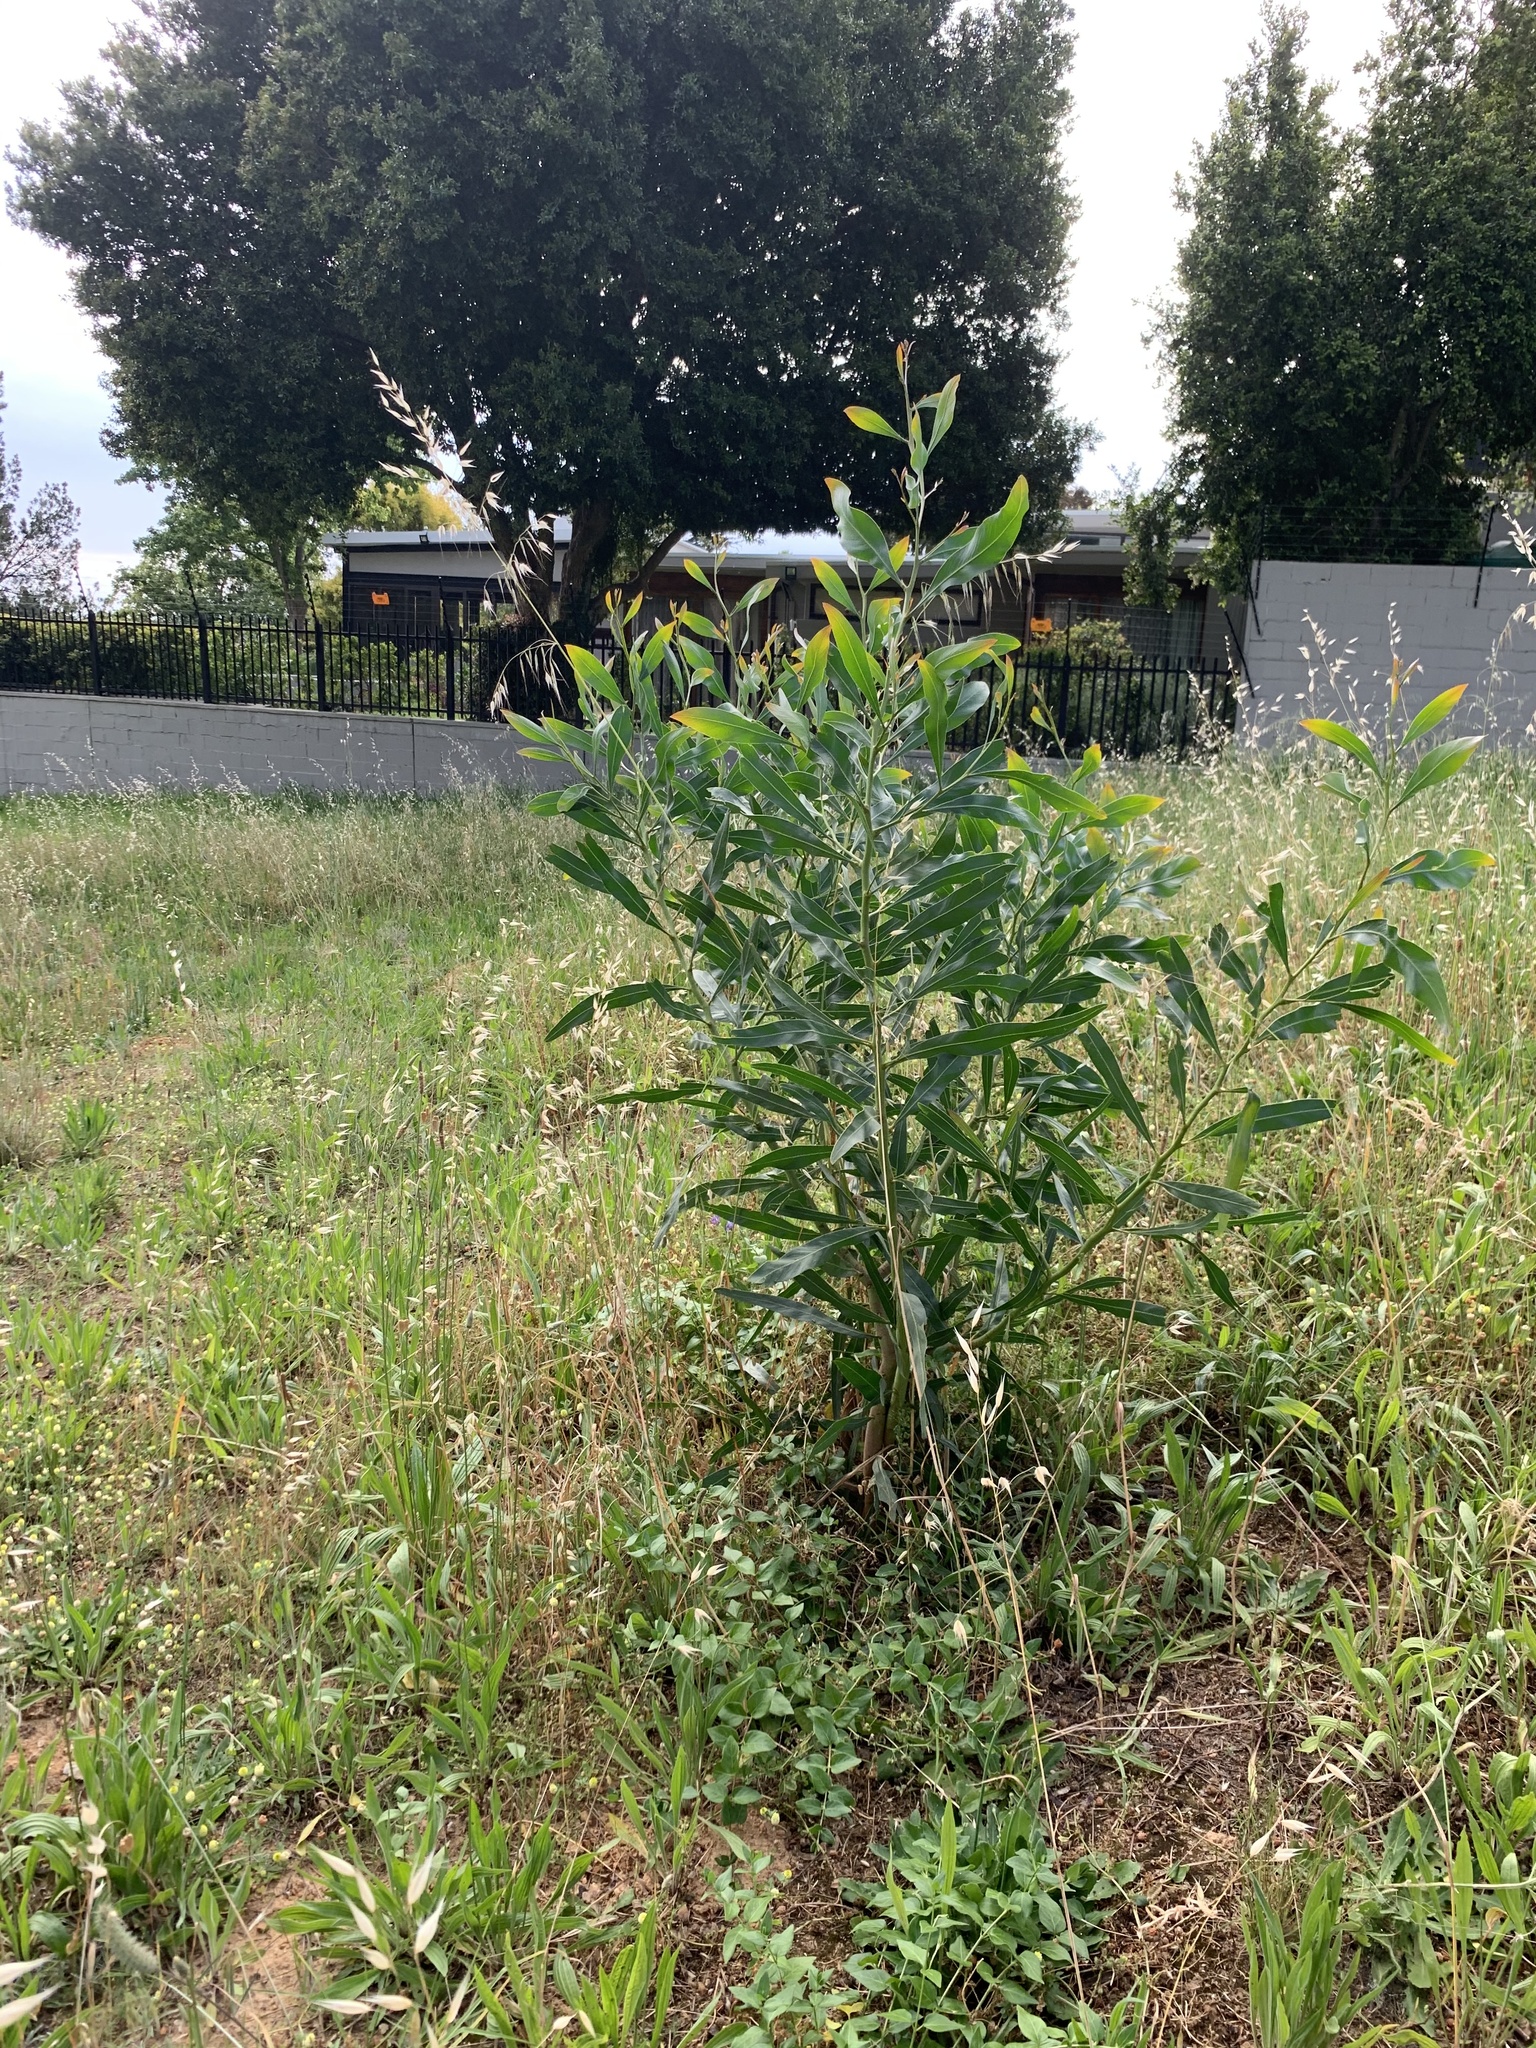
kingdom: Plantae
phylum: Tracheophyta
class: Magnoliopsida
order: Fabales
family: Fabaceae
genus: Acacia
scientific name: Acacia saligna
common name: Orange wattle
